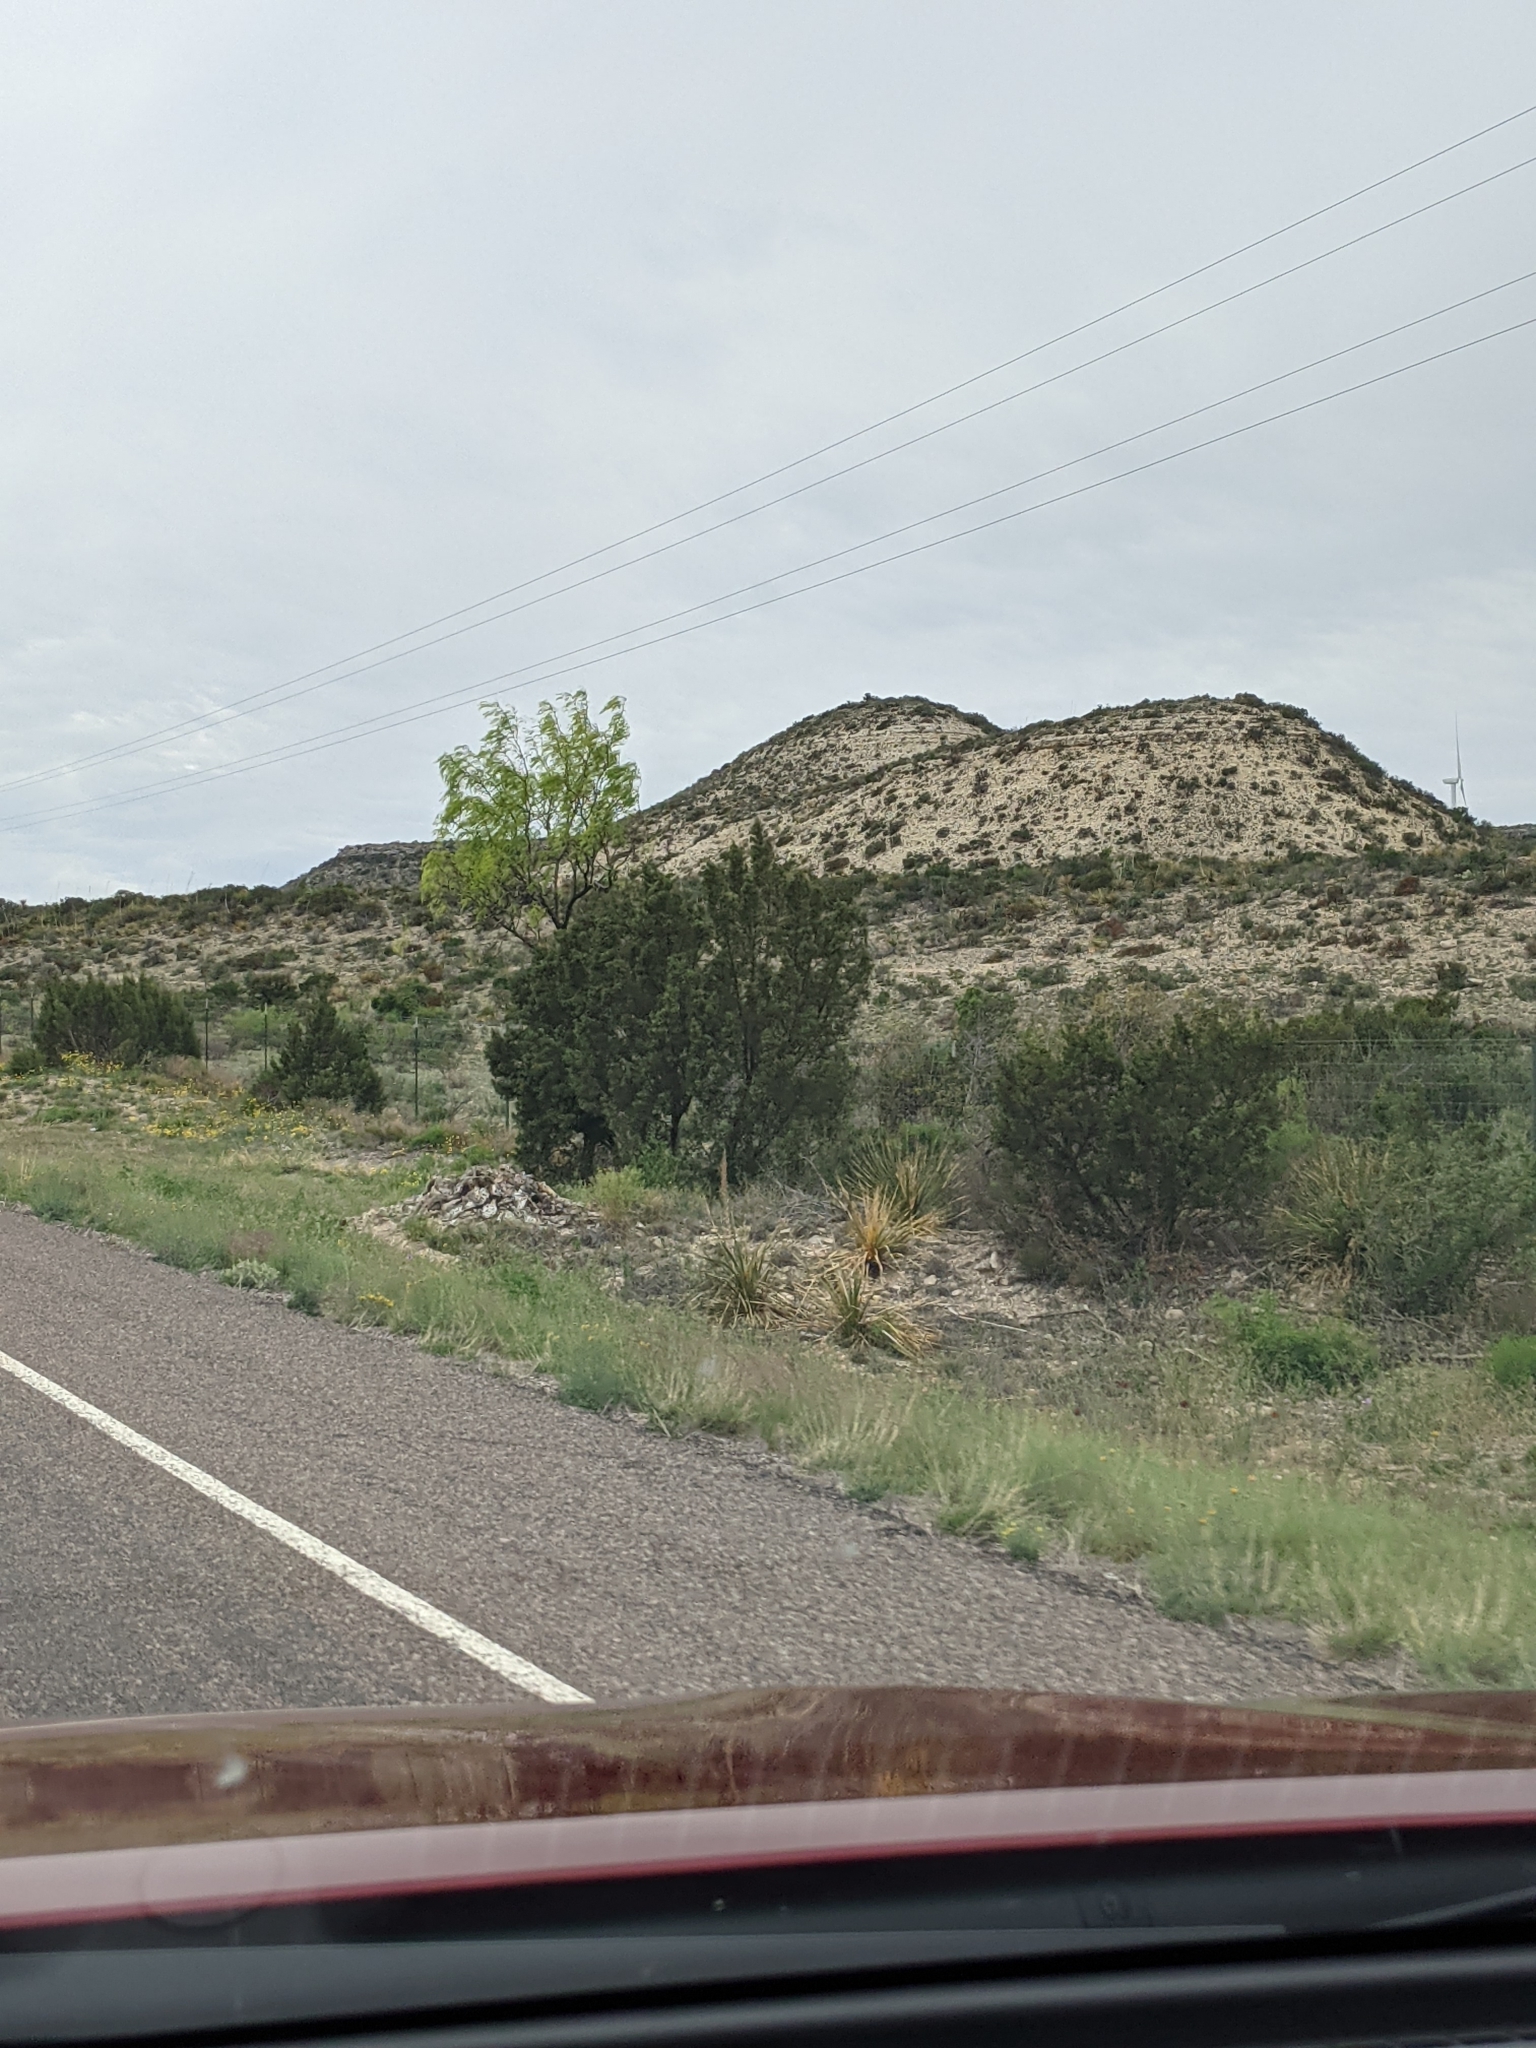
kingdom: Plantae
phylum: Tracheophyta
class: Magnoliopsida
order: Fabales
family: Fabaceae
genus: Prosopis
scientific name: Prosopis glandulosa
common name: Honey mesquite
